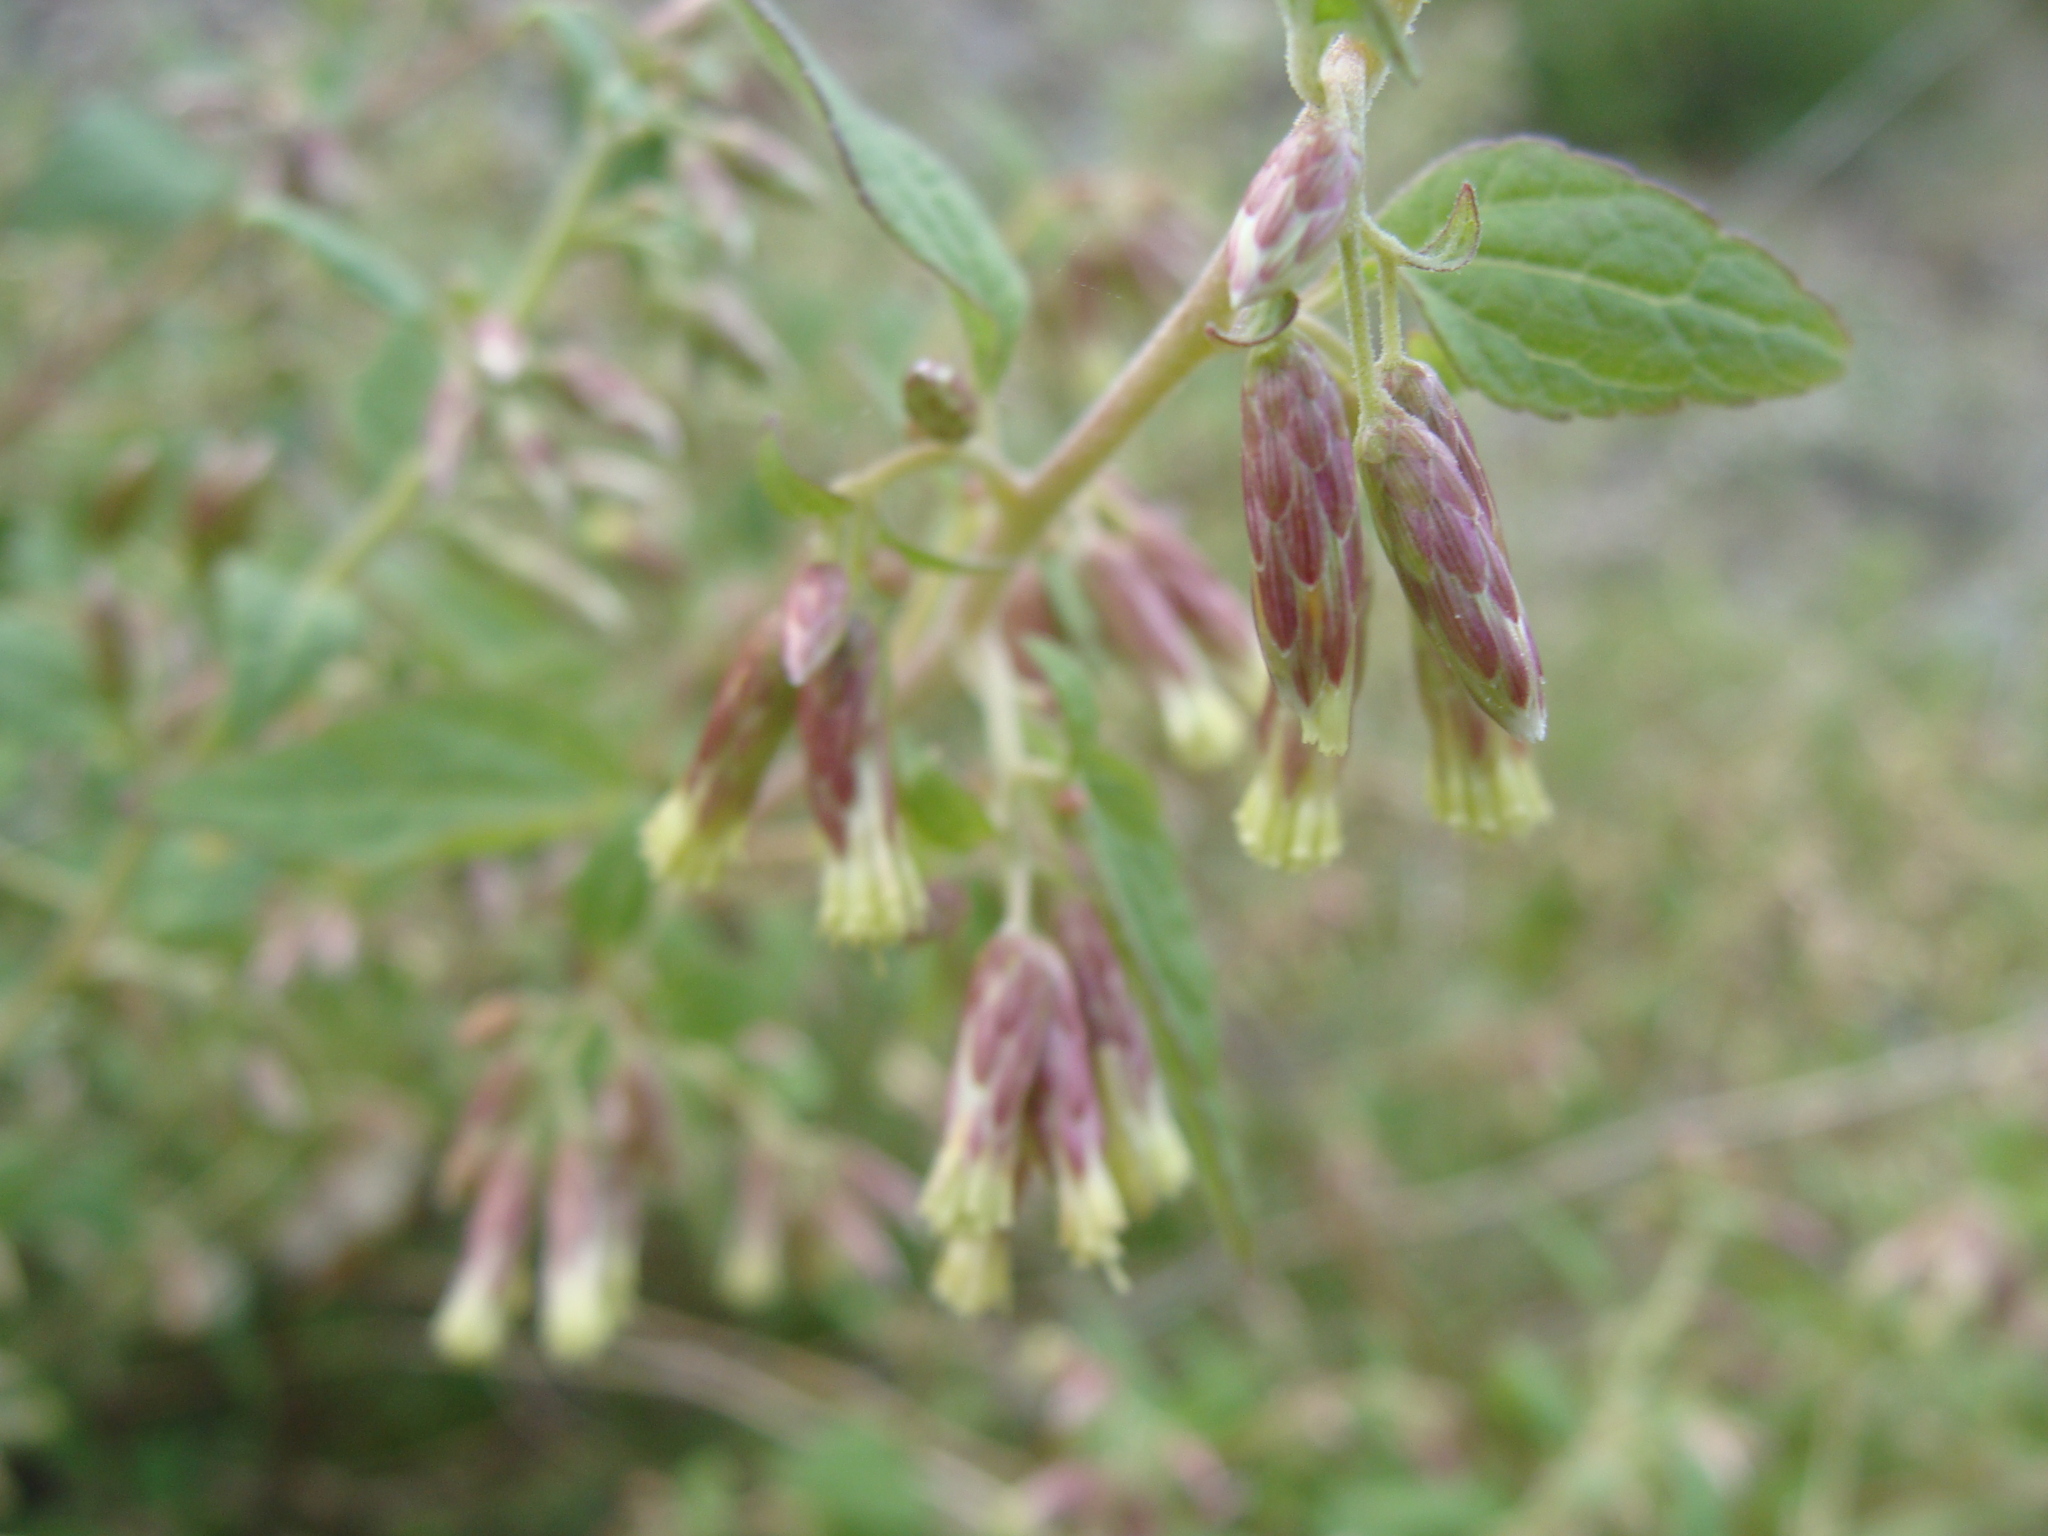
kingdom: Plantae
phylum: Tracheophyta
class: Magnoliopsida
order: Asterales
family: Asteraceae
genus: Brickellia
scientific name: Brickellia californica
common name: California brickellbush
